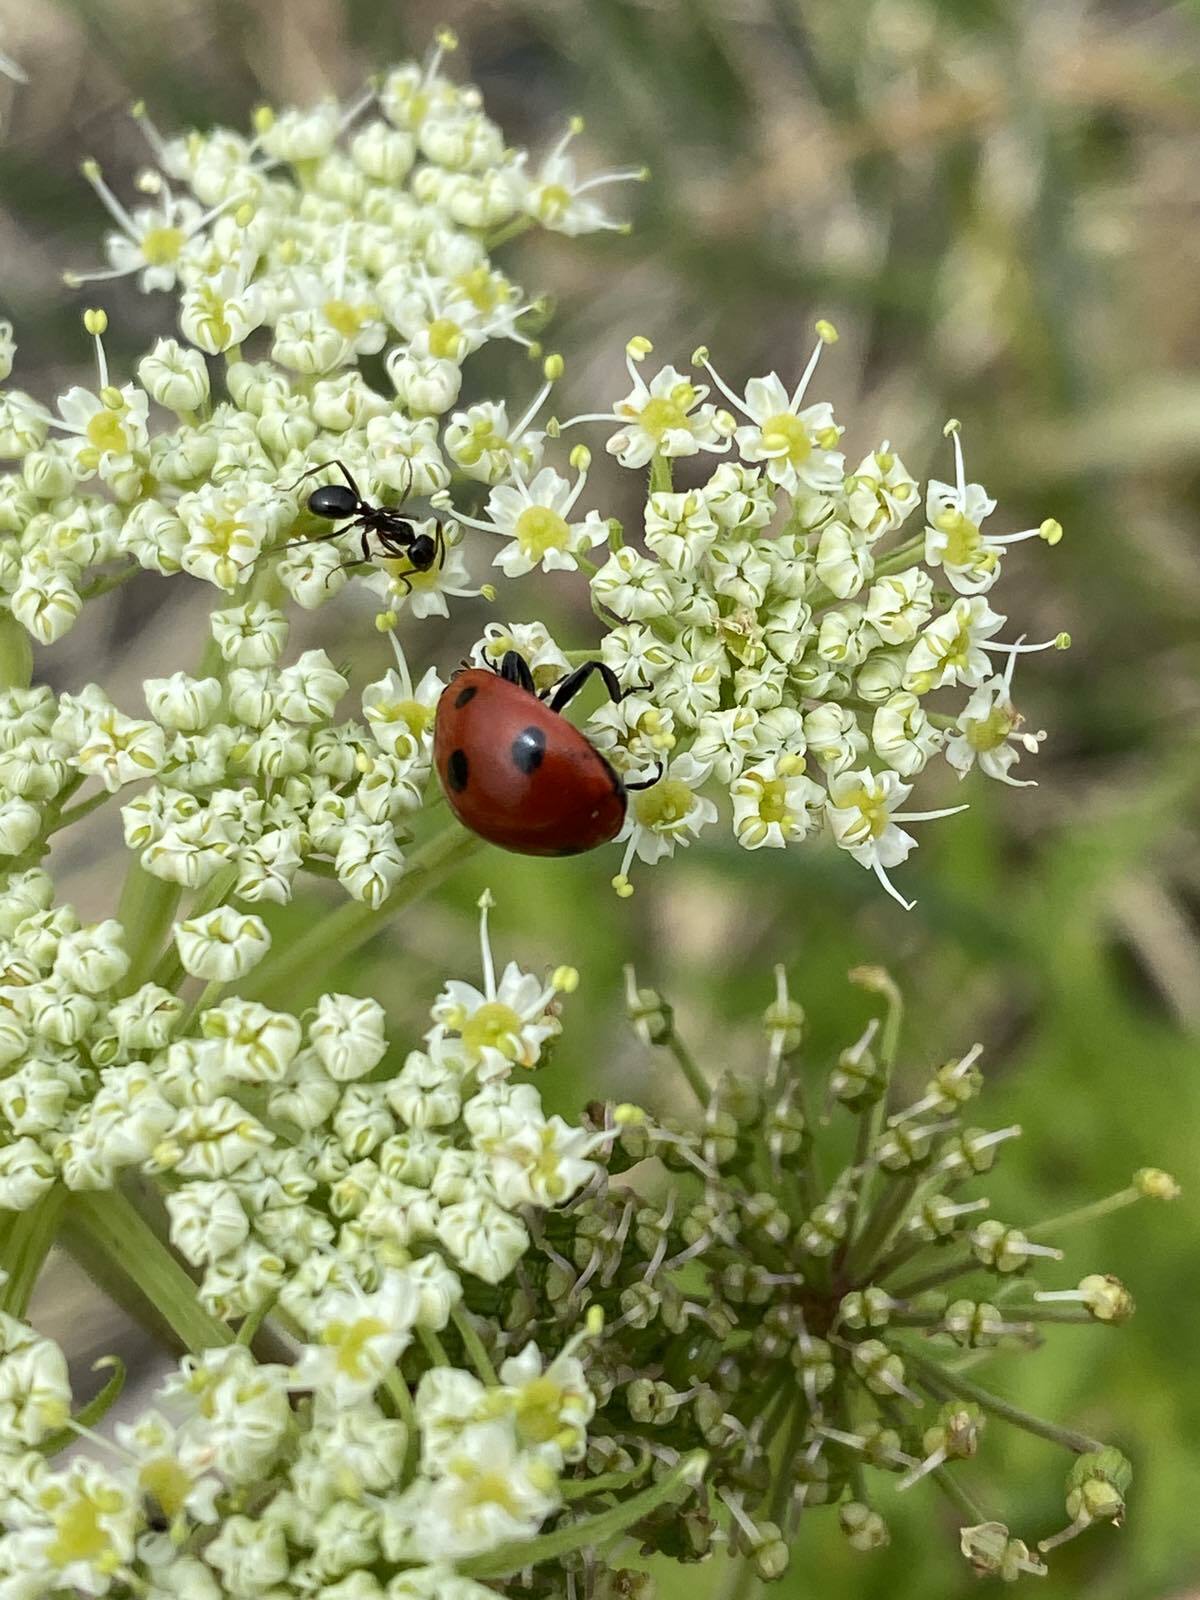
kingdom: Animalia
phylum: Arthropoda
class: Insecta
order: Coleoptera
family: Coccinellidae
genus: Coccinella
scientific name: Coccinella septempunctata
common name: Sevenspotted lady beetle
